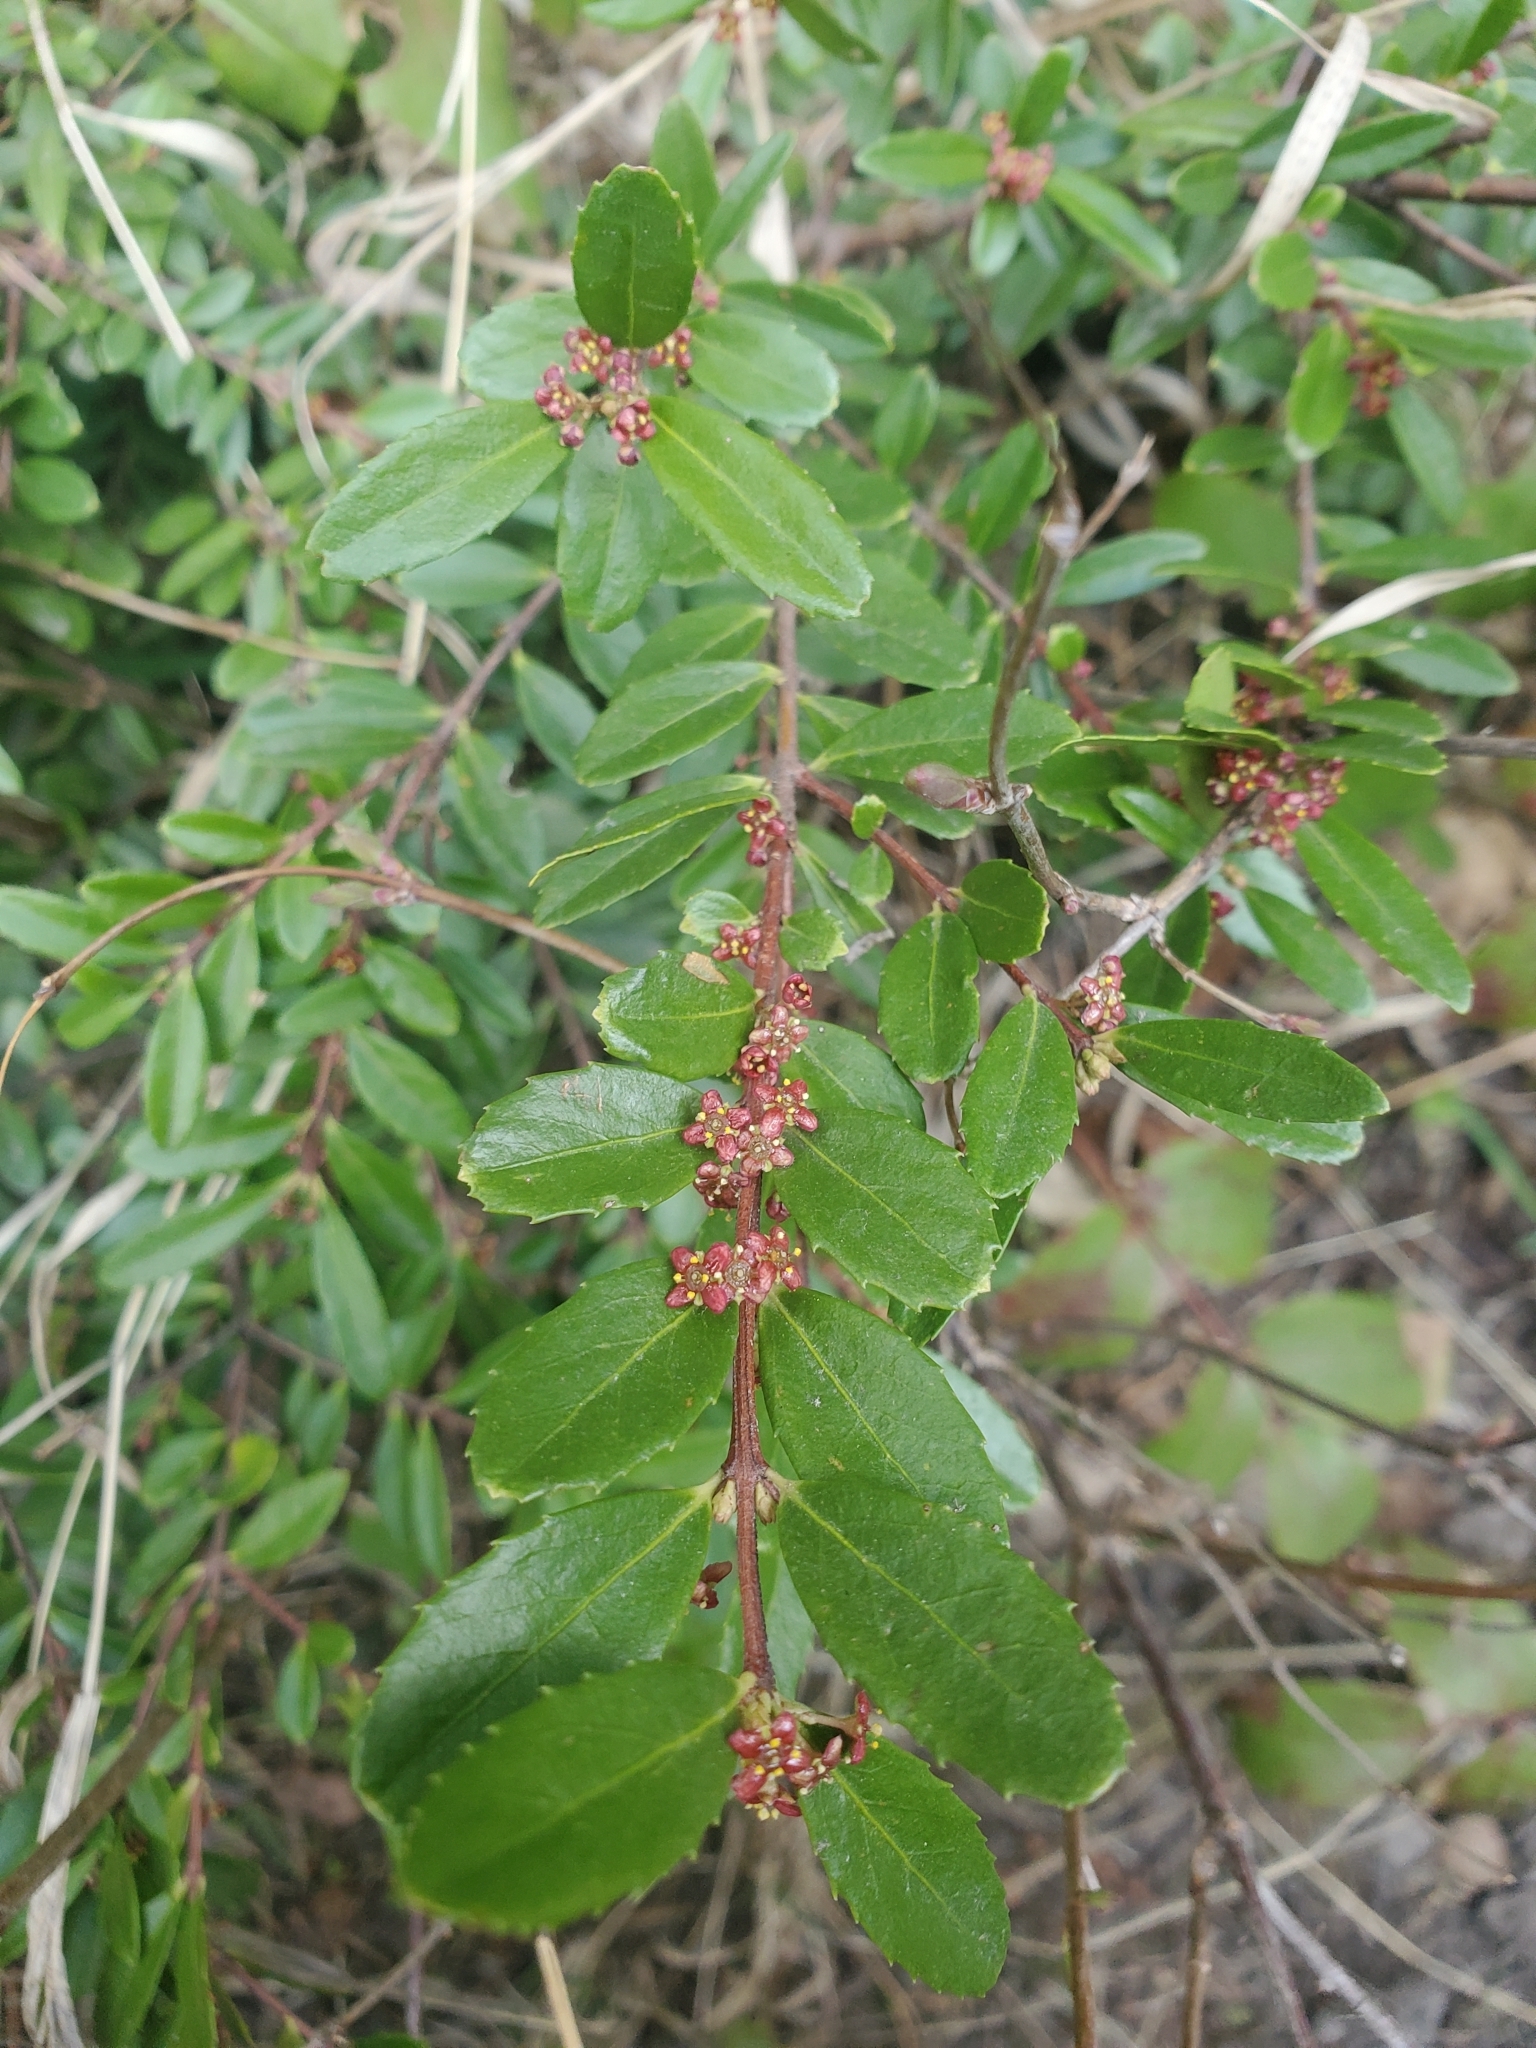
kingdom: Plantae
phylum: Tracheophyta
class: Magnoliopsida
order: Celastrales
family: Celastraceae
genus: Paxistima
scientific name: Paxistima myrsinites
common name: Mountain-lover
